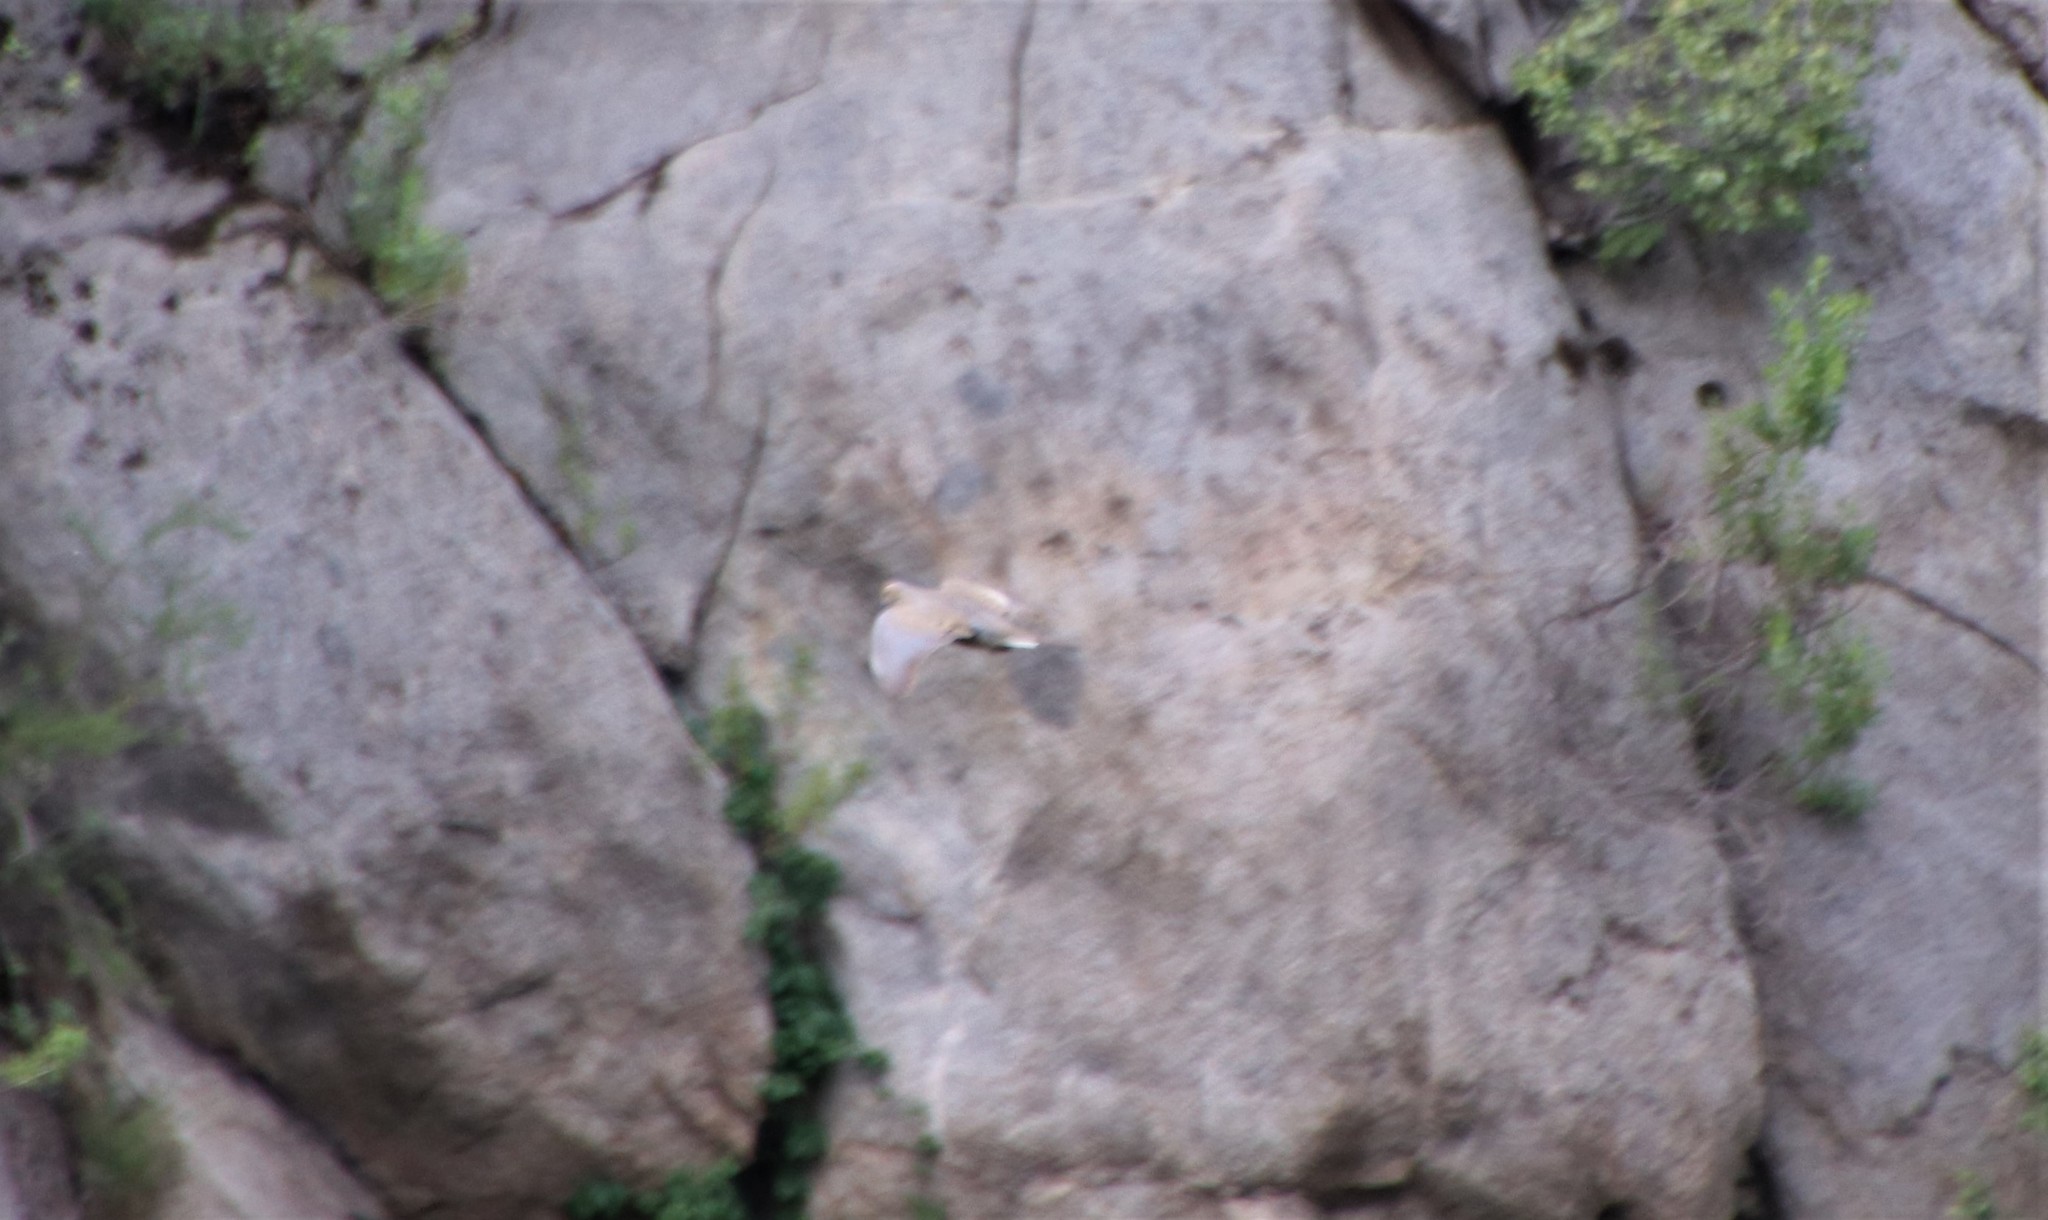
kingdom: Animalia
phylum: Chordata
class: Aves
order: Columbiformes
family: Columbidae
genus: Streptopelia
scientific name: Streptopelia decaocto
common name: Eurasian collared dove
